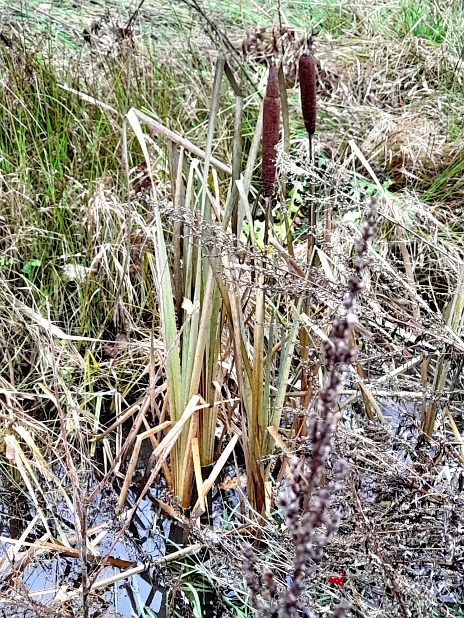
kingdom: Plantae
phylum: Tracheophyta
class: Liliopsida
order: Poales
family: Typhaceae
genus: Typha
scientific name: Typha latifolia
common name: Broadleaf cattail
